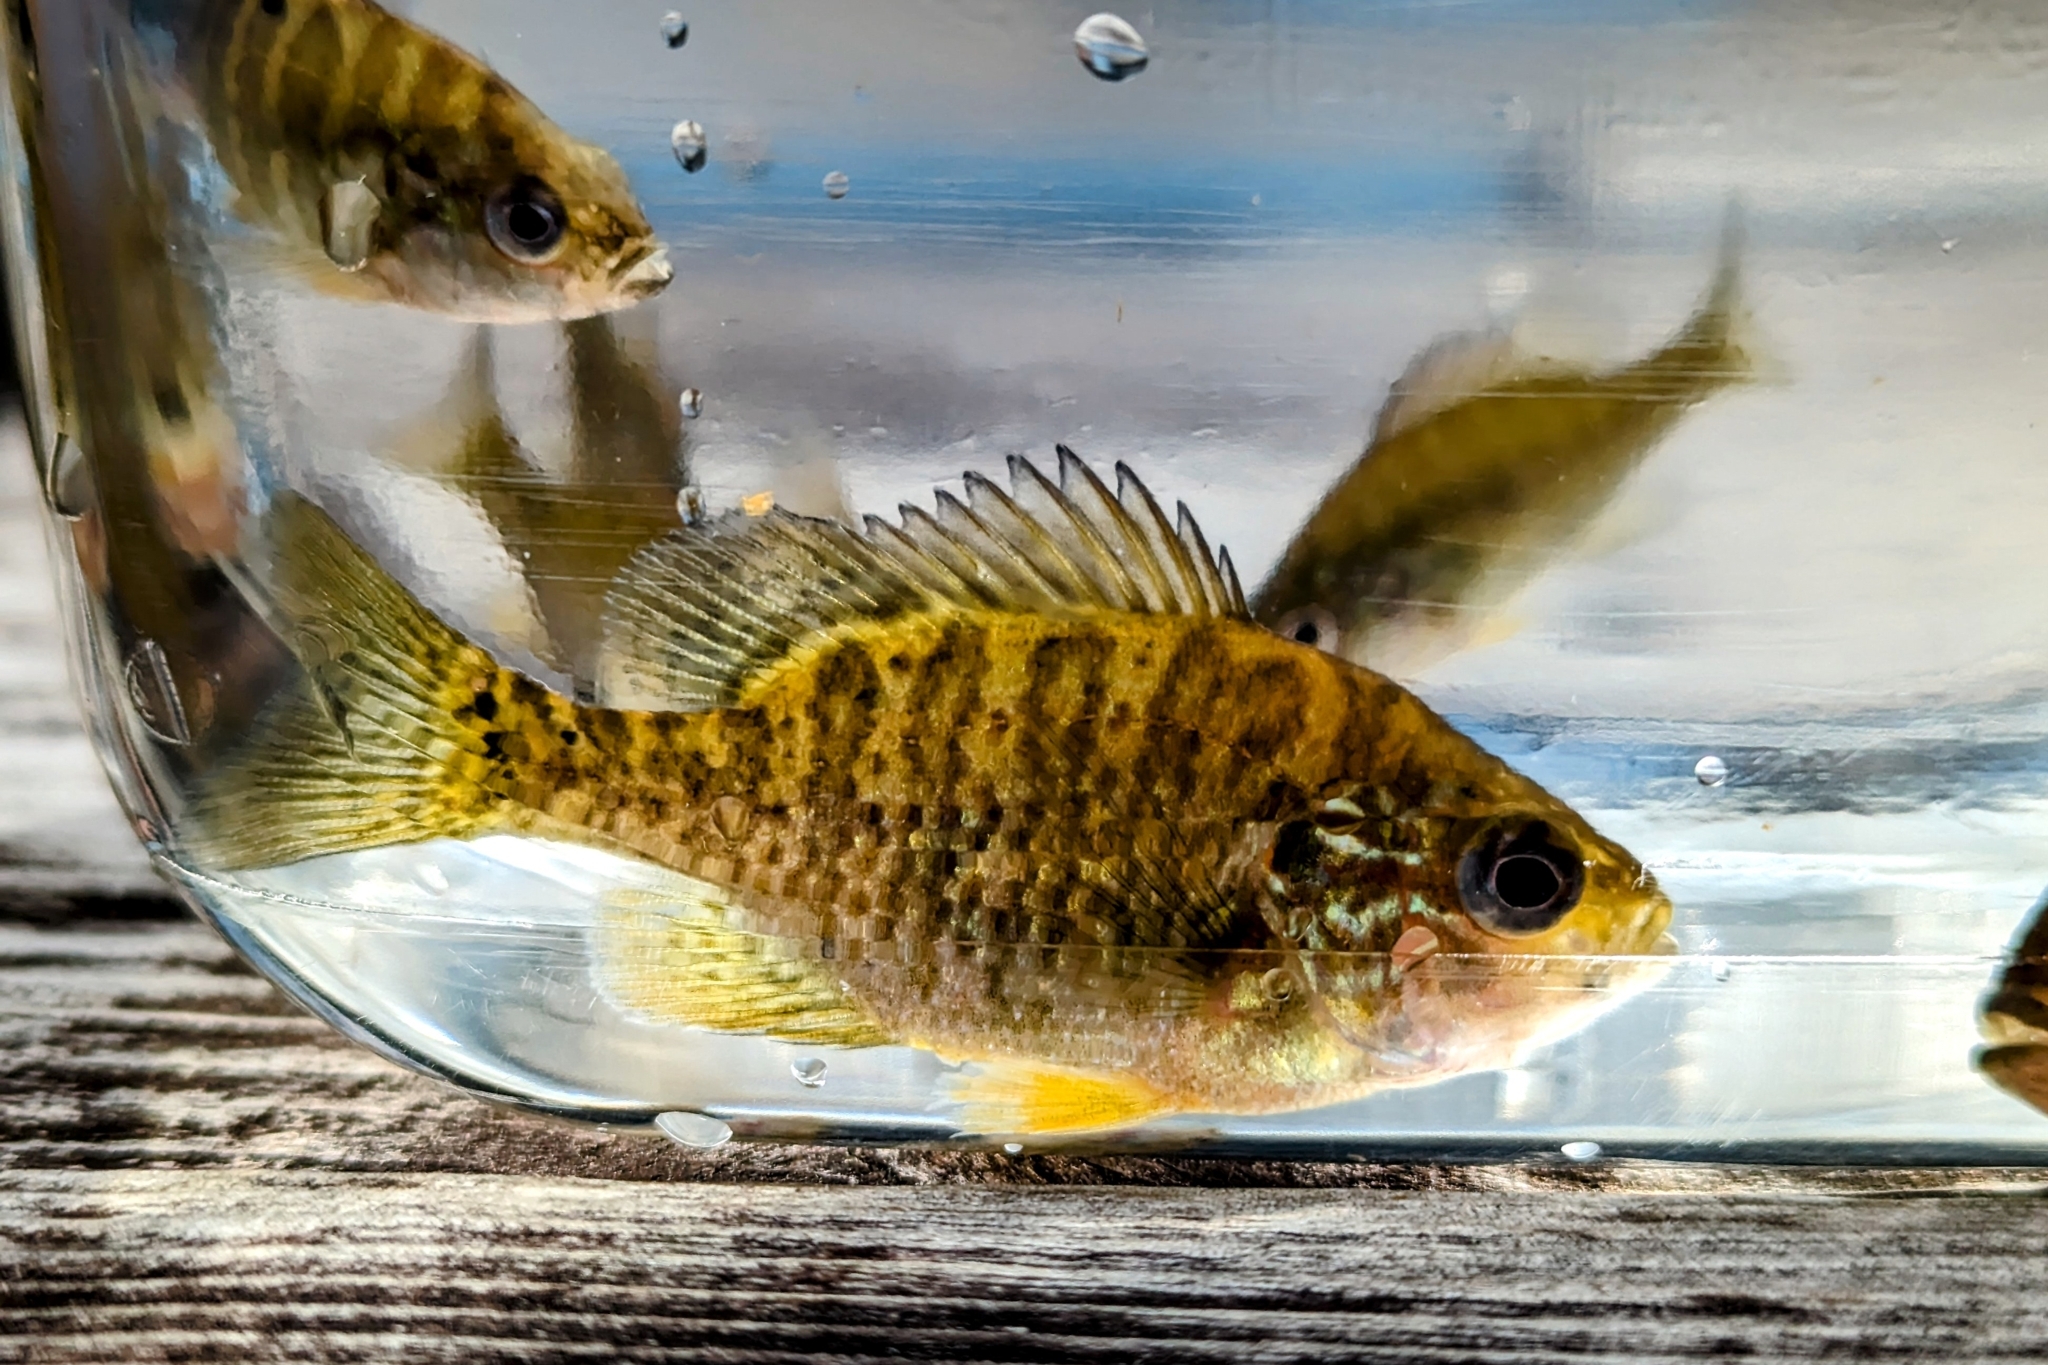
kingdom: Animalia
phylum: Chordata
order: Perciformes
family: Centrarchidae
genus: Lepomis
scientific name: Lepomis gibbosus
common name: Pumpkinseed
